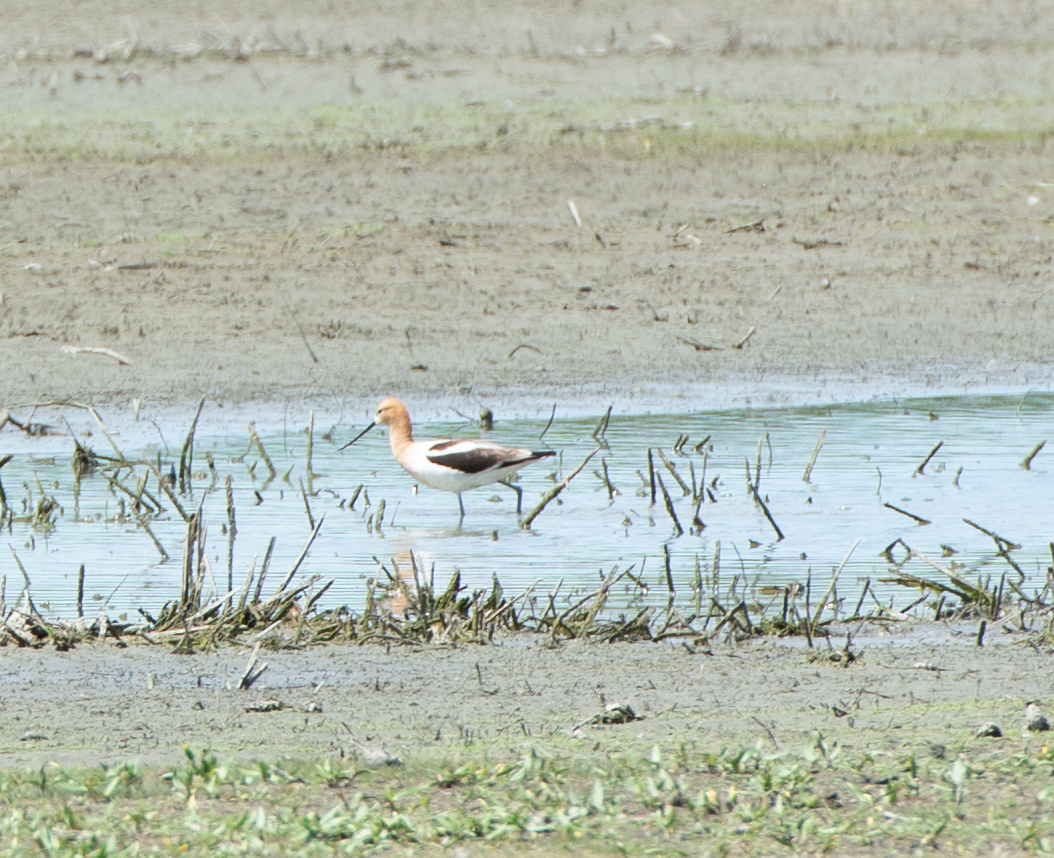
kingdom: Animalia
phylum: Chordata
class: Aves
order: Charadriiformes
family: Recurvirostridae
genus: Recurvirostra
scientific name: Recurvirostra americana
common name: American avocet
